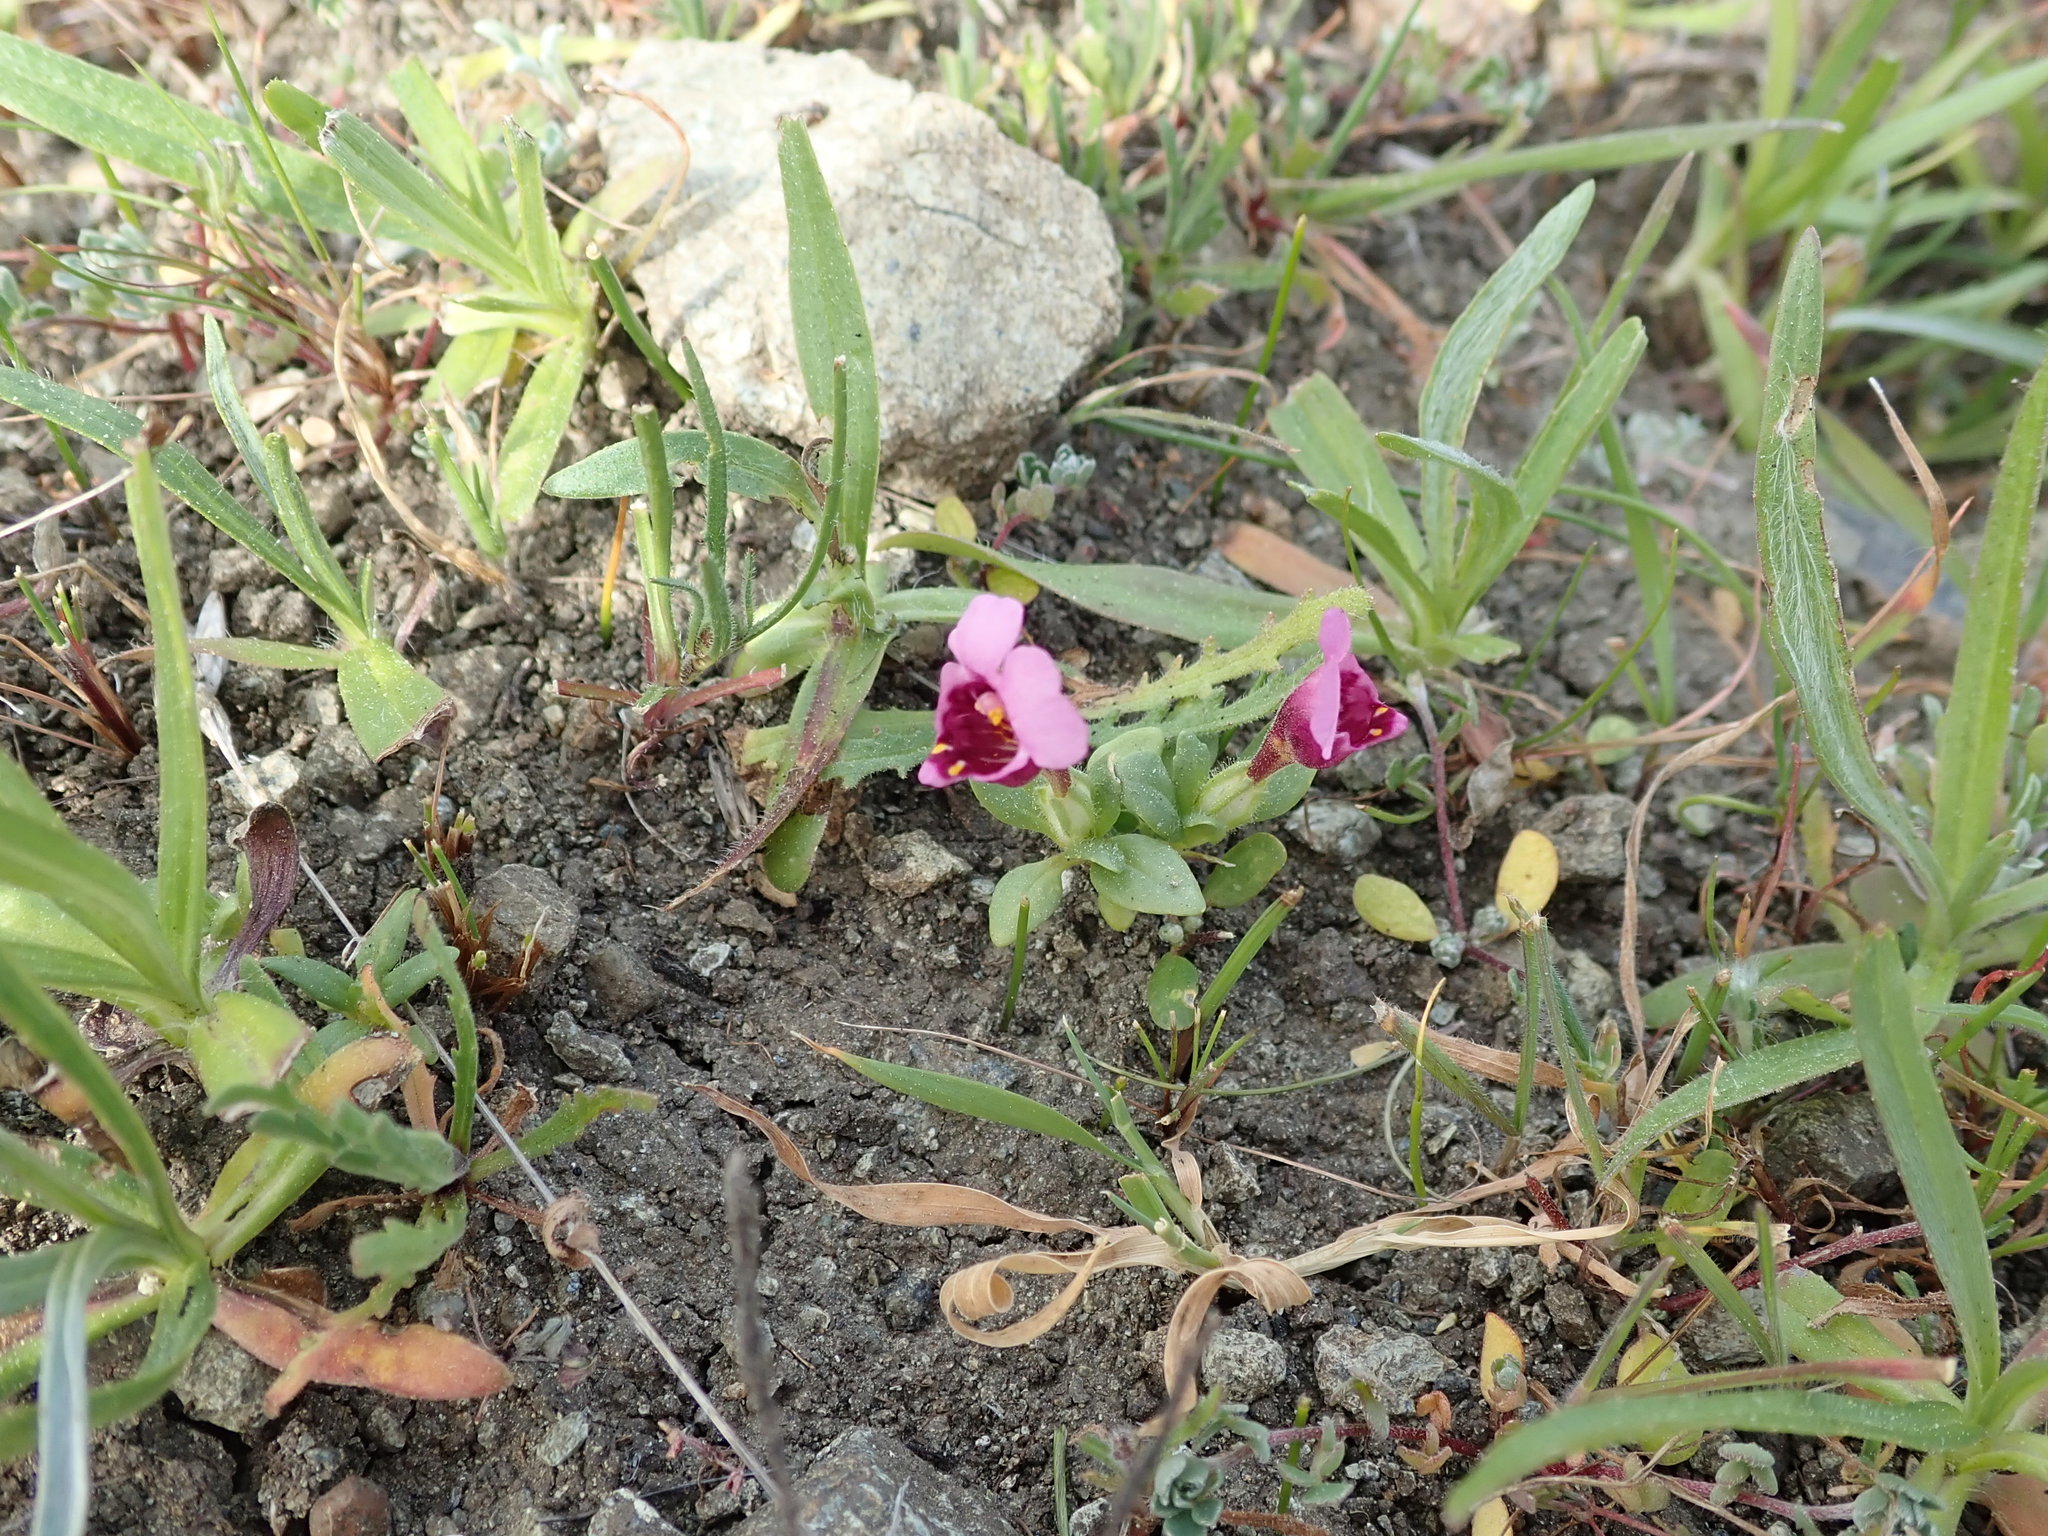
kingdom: Plantae
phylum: Tracheophyta
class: Magnoliopsida
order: Lamiales
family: Phrymaceae
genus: Diplacus
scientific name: Diplacus douglasii
